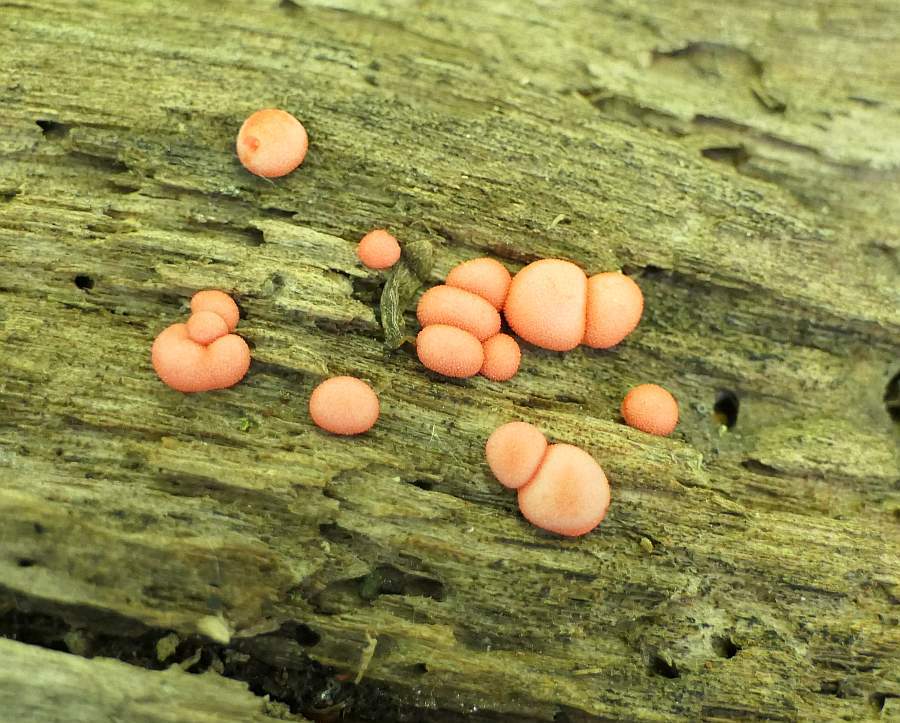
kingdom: Protozoa
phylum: Mycetozoa
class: Myxomycetes
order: Cribrariales
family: Tubiferaceae
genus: Lycogala
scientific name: Lycogala epidendrum
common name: Wolf's milk
